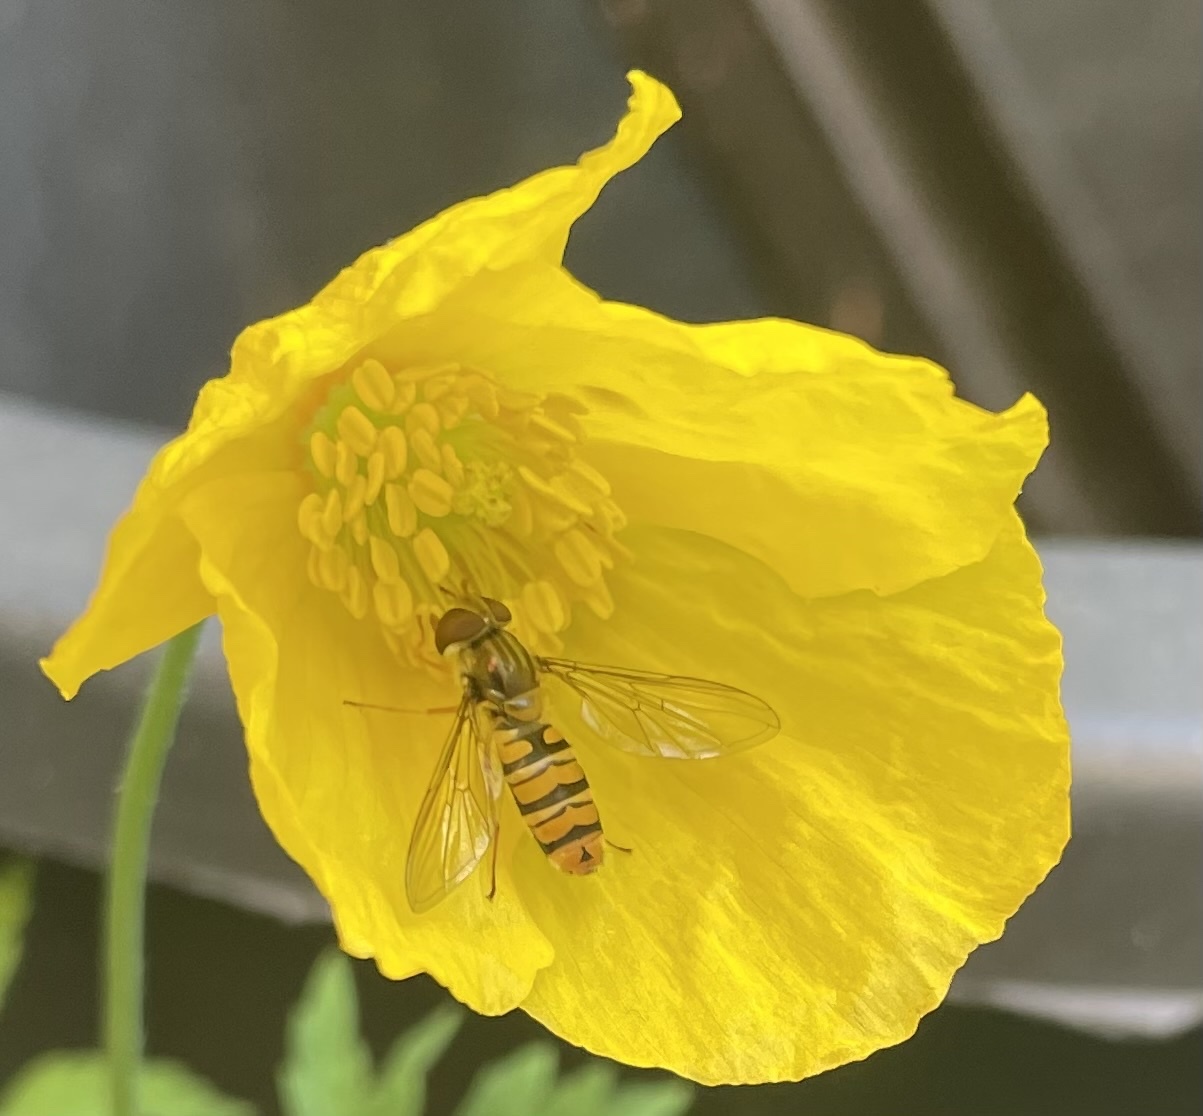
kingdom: Animalia
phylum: Arthropoda
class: Insecta
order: Diptera
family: Syrphidae
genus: Episyrphus
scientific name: Episyrphus balteatus
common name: Marmalade hoverfly
